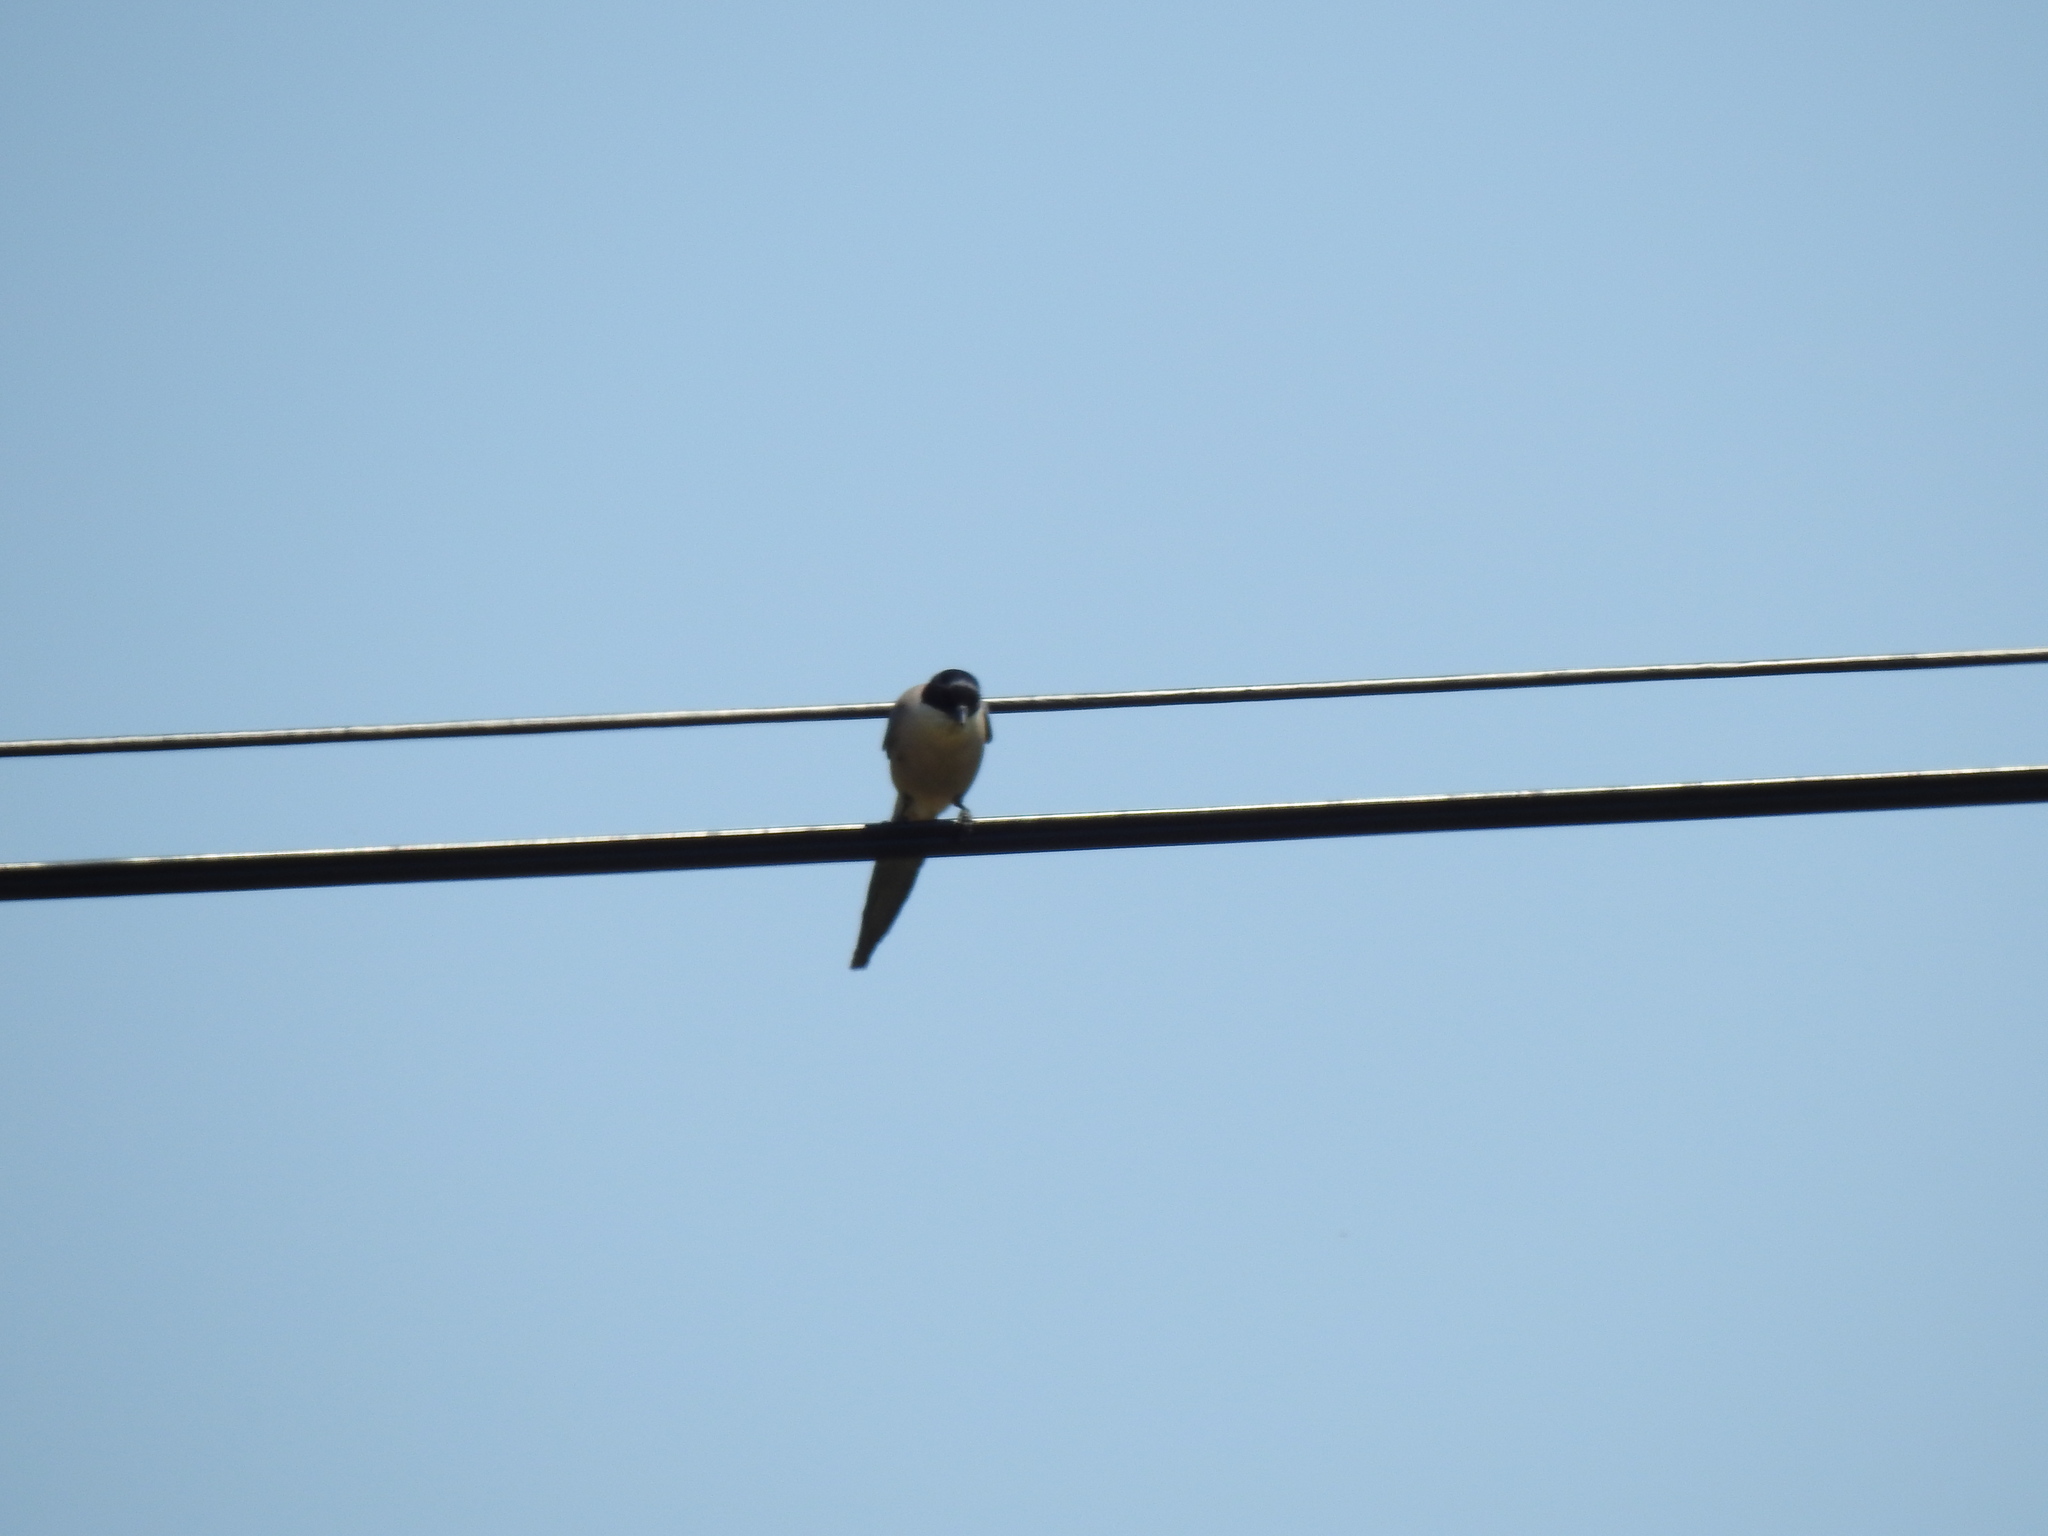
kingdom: Animalia
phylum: Chordata
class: Aves
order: Passeriformes
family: Corvidae
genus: Cyanopica
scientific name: Cyanopica cooki
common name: Iberian magpie
